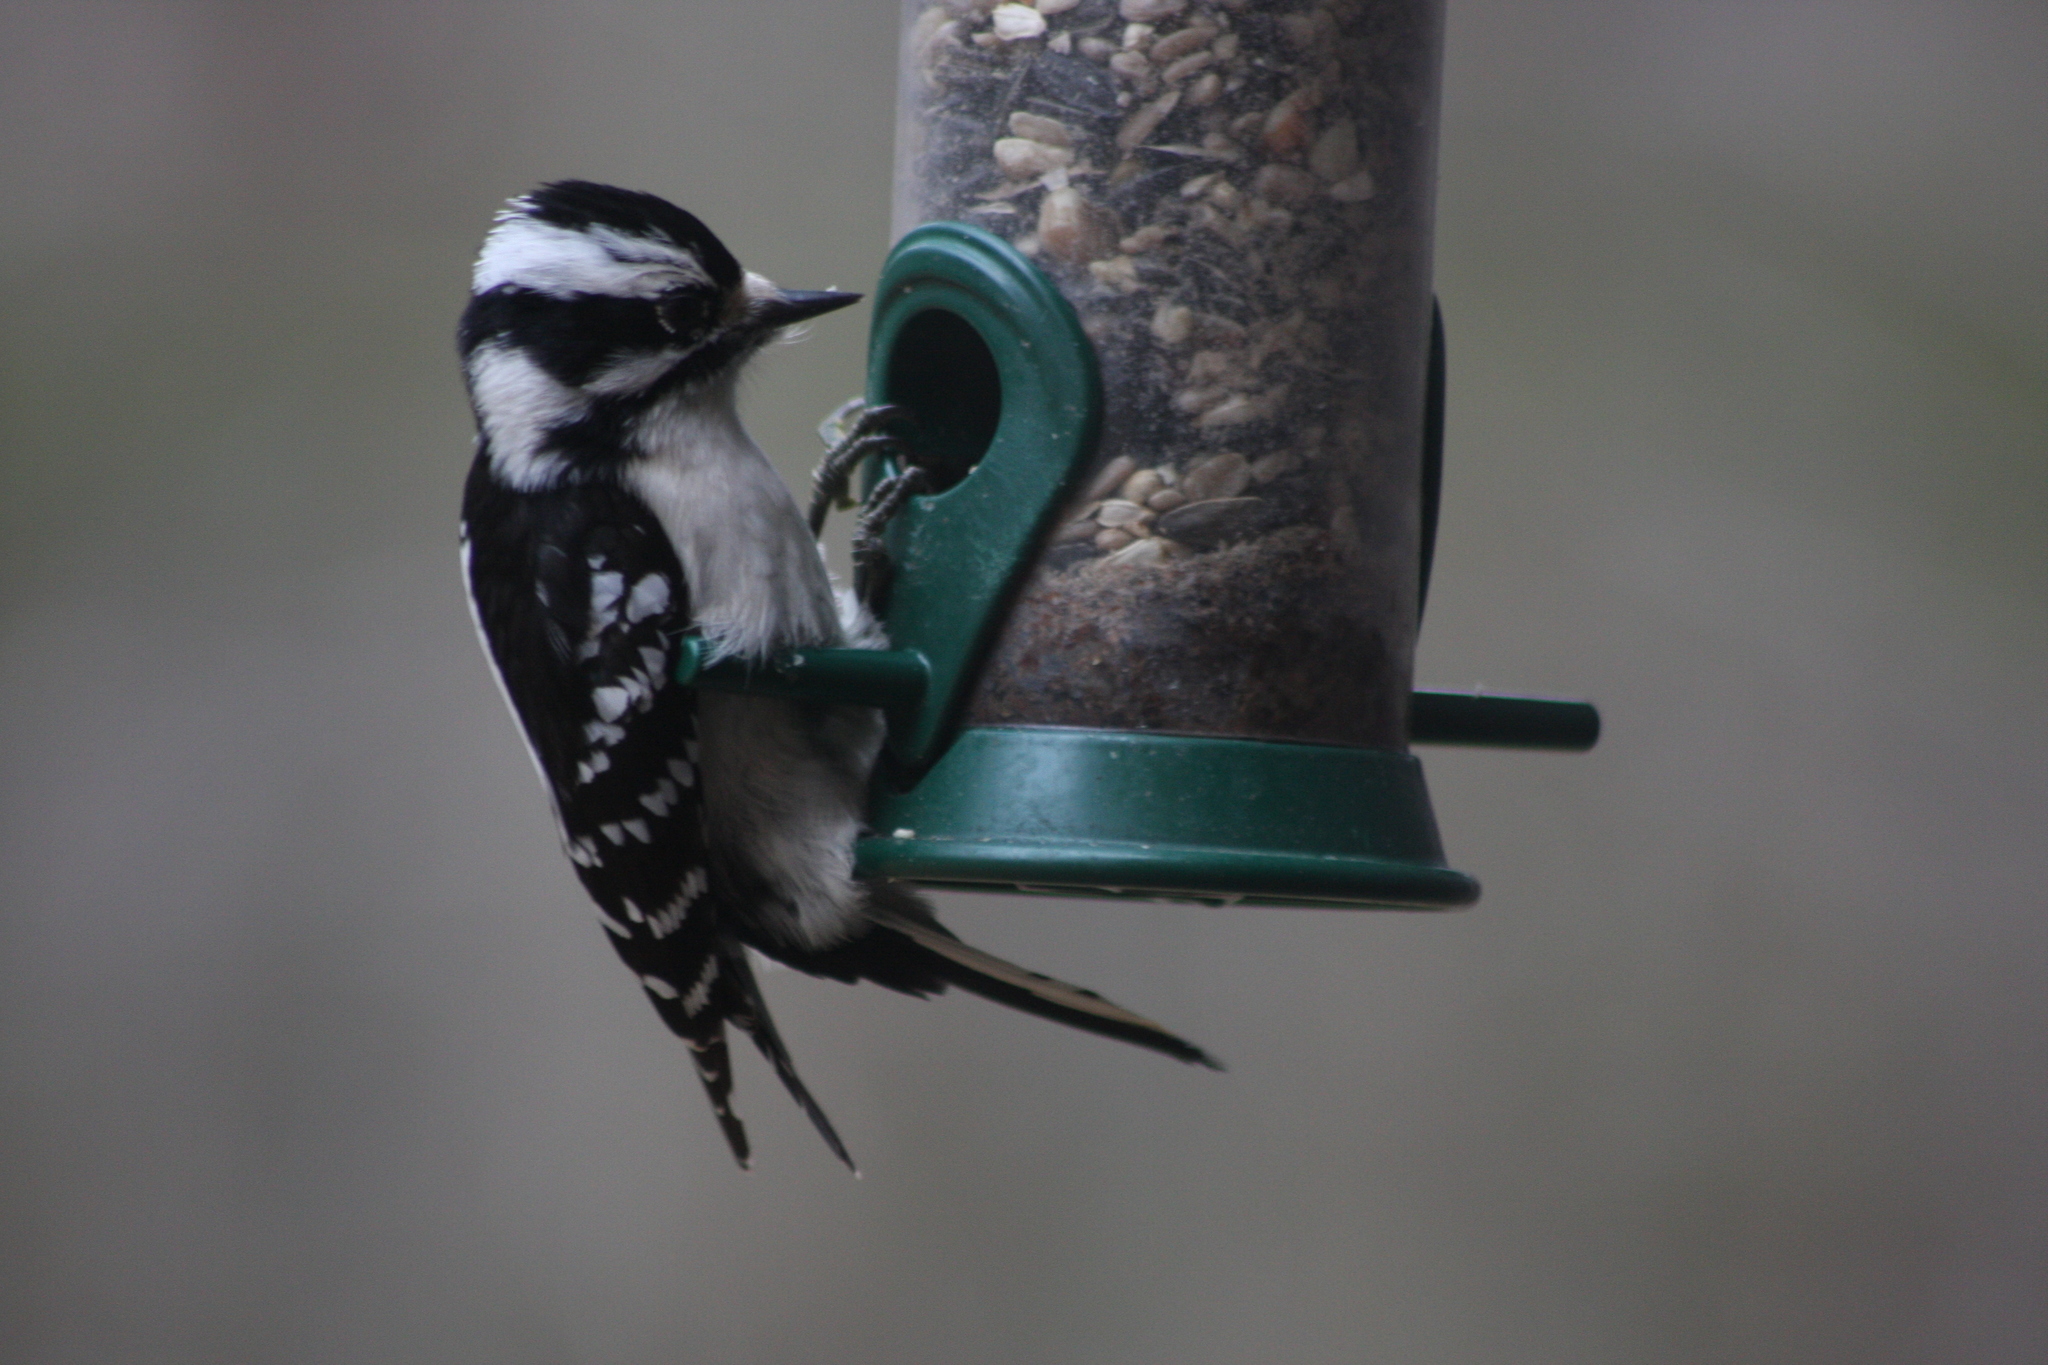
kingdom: Animalia
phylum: Chordata
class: Aves
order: Piciformes
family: Picidae
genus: Dryobates
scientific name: Dryobates pubescens
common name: Downy woodpecker
